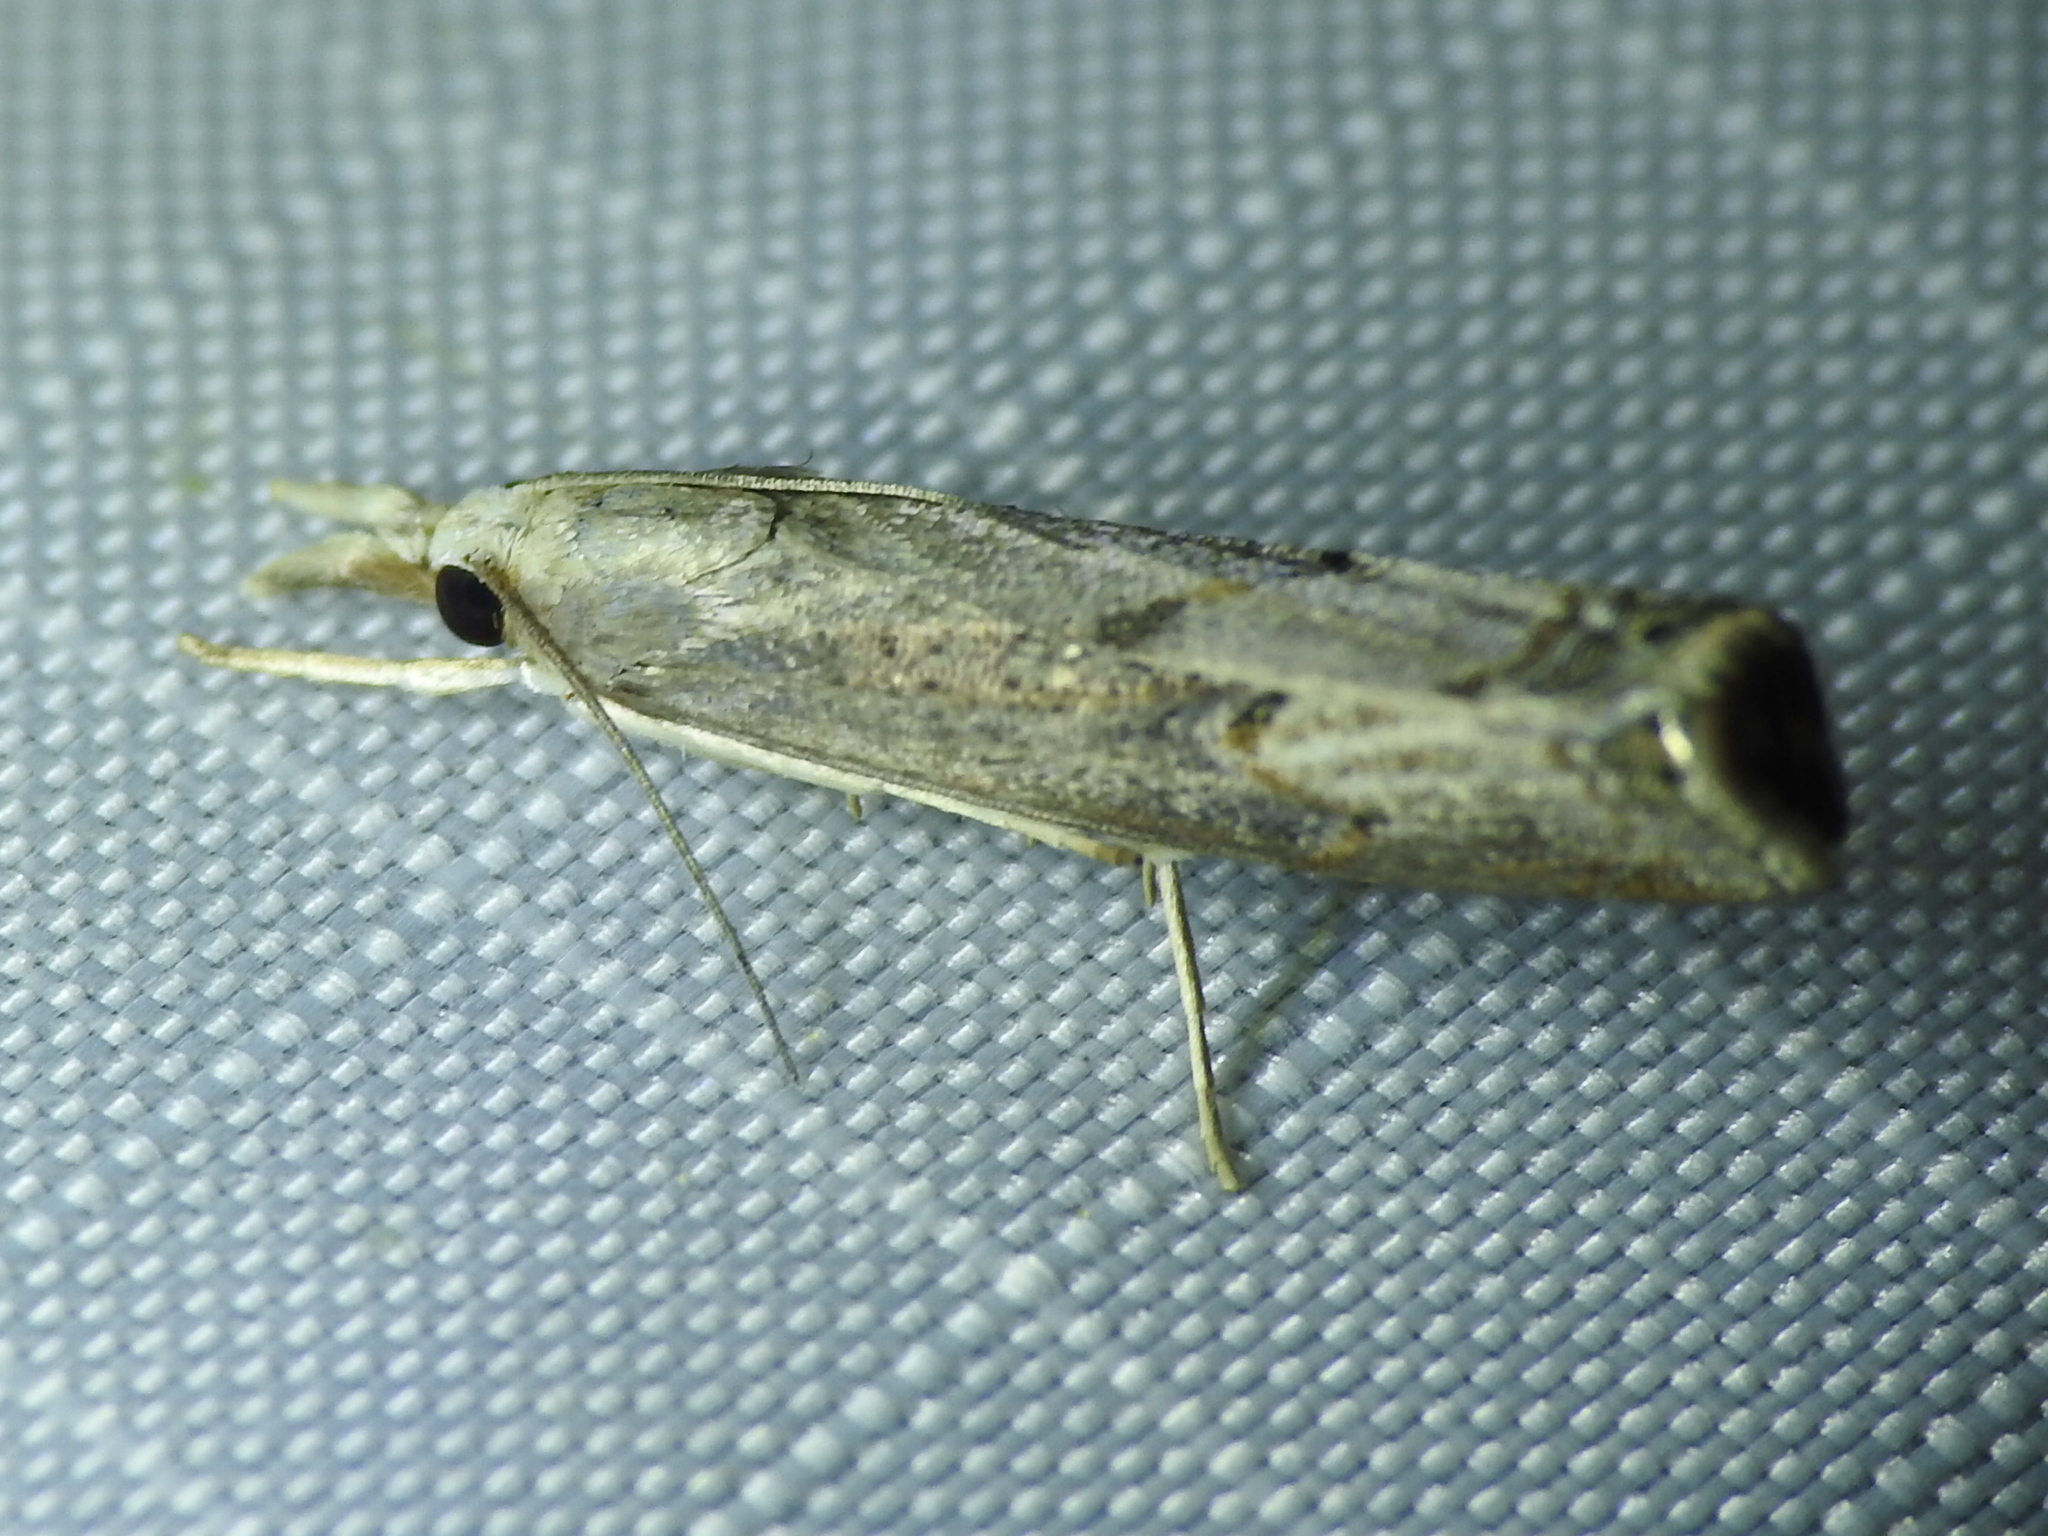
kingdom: Animalia
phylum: Arthropoda
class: Insecta
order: Lepidoptera
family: Crambidae
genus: Parapediasia
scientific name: Parapediasia teterellus
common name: Bluegrass webworm moth
